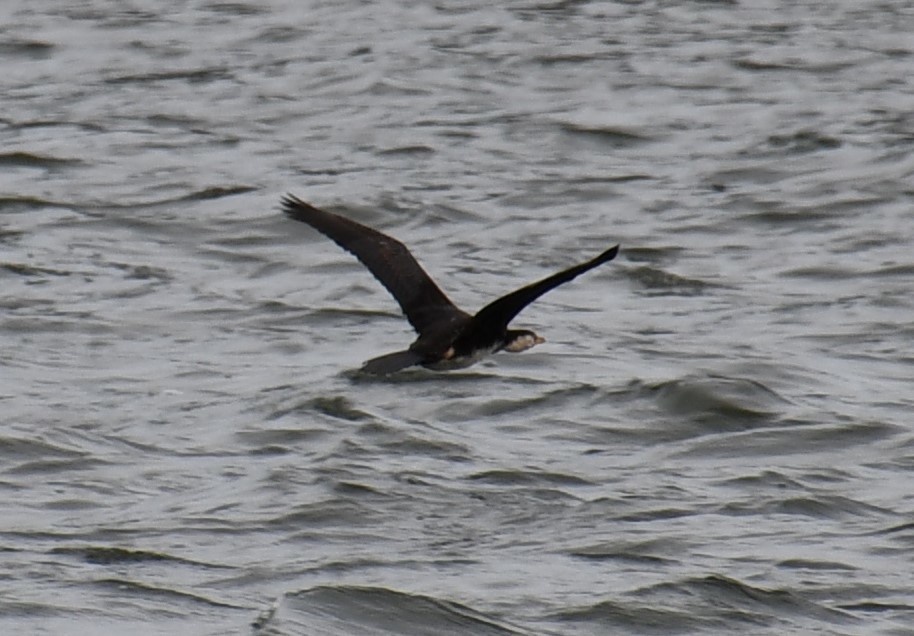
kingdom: Animalia
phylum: Chordata
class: Aves
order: Suliformes
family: Phalacrocoracidae
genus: Microcarbo
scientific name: Microcarbo melanoleucos
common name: Little pied cormorant
